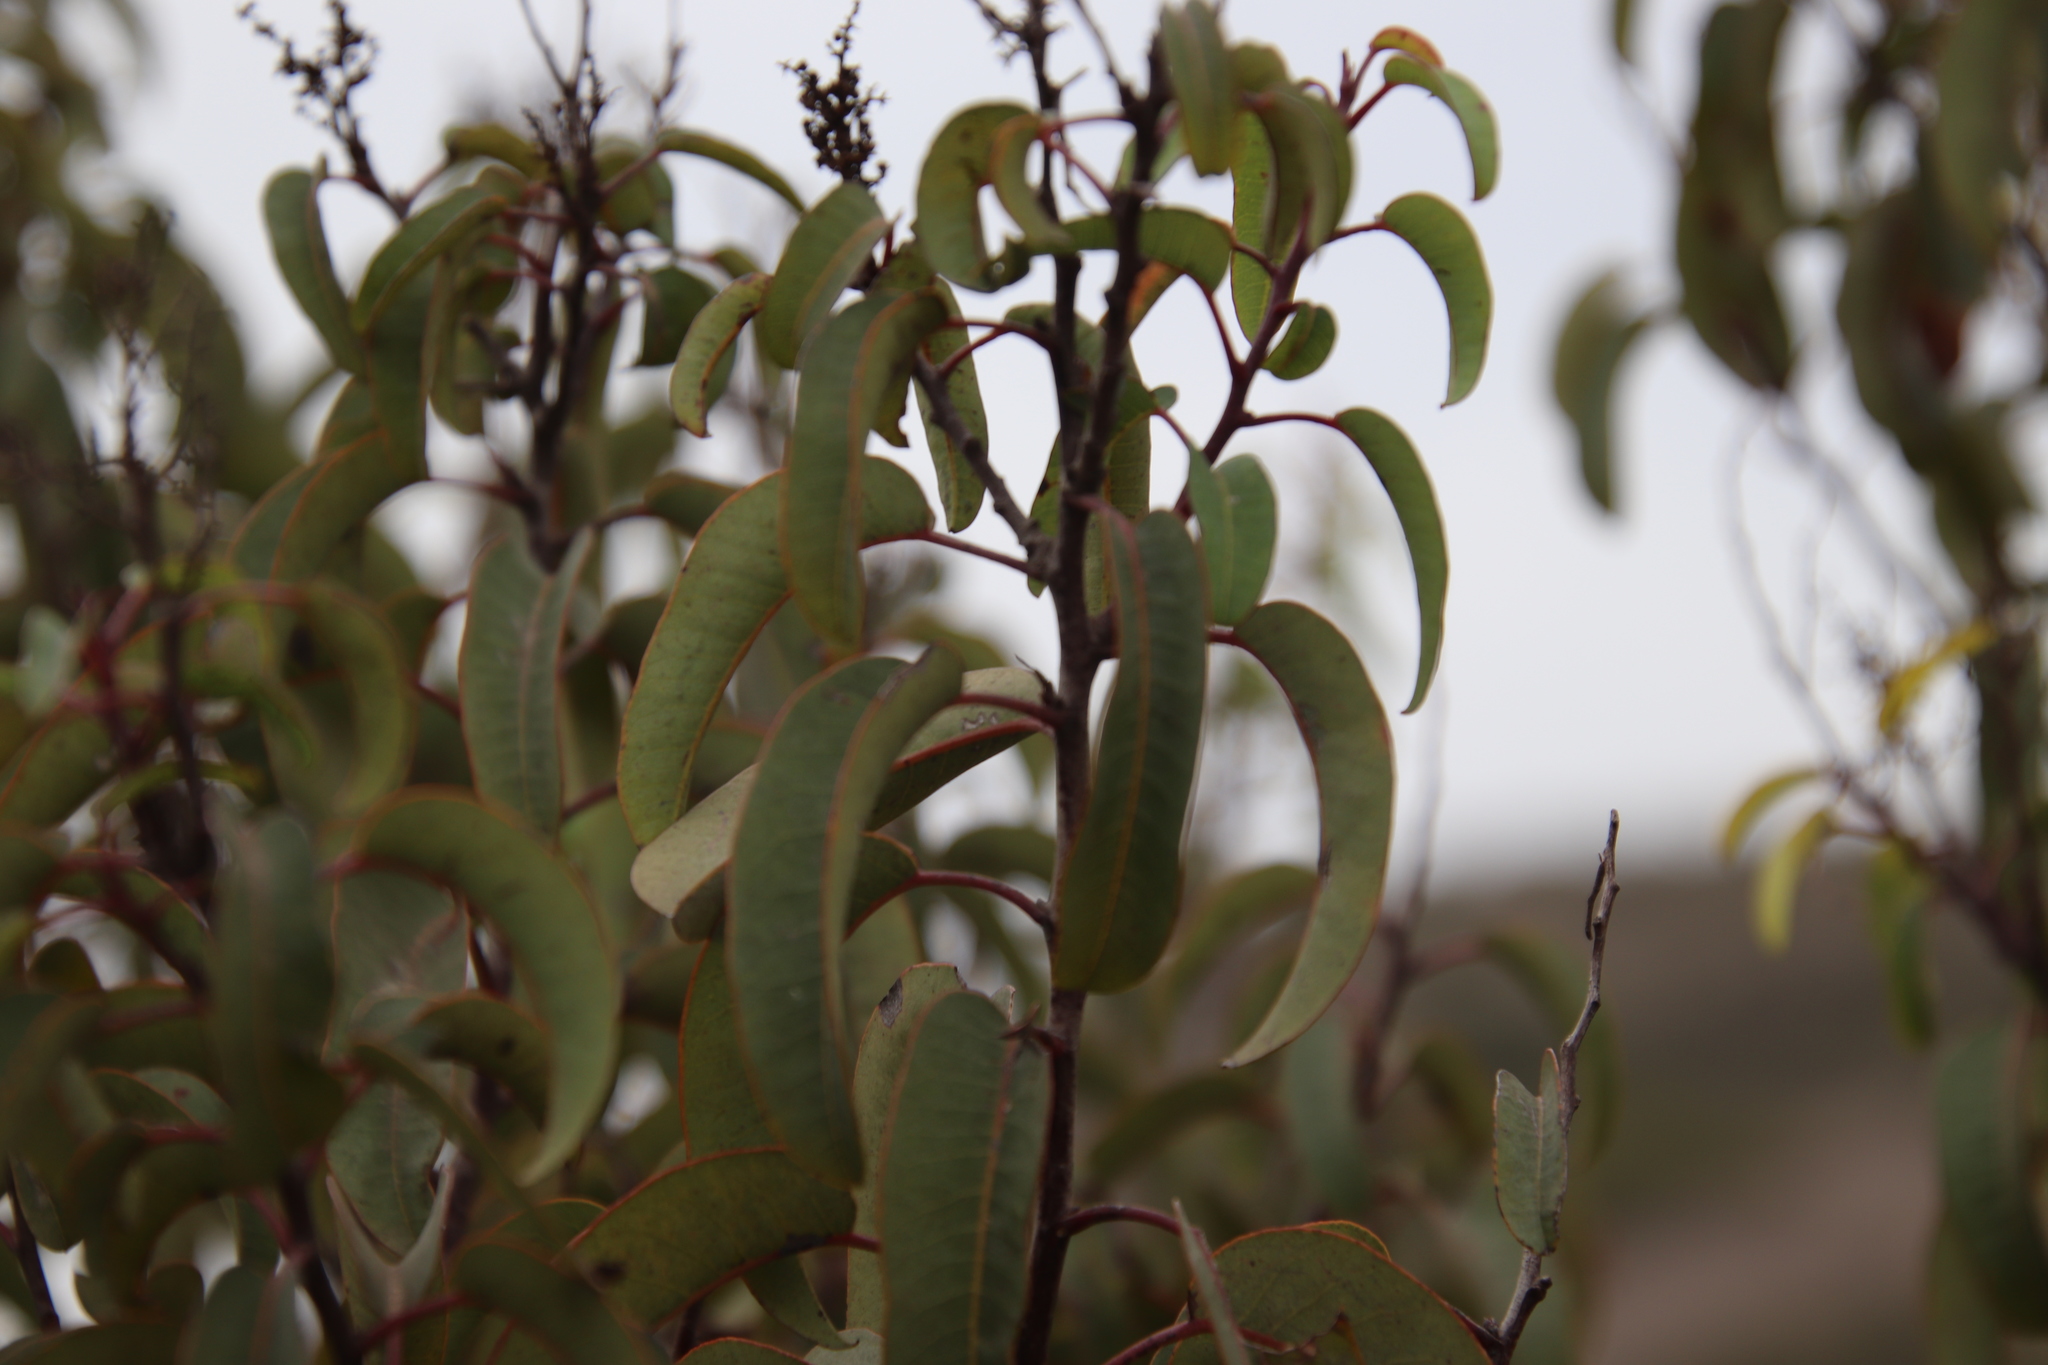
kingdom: Plantae
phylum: Tracheophyta
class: Magnoliopsida
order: Sapindales
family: Anacardiaceae
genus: Malosma
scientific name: Malosma laurina
